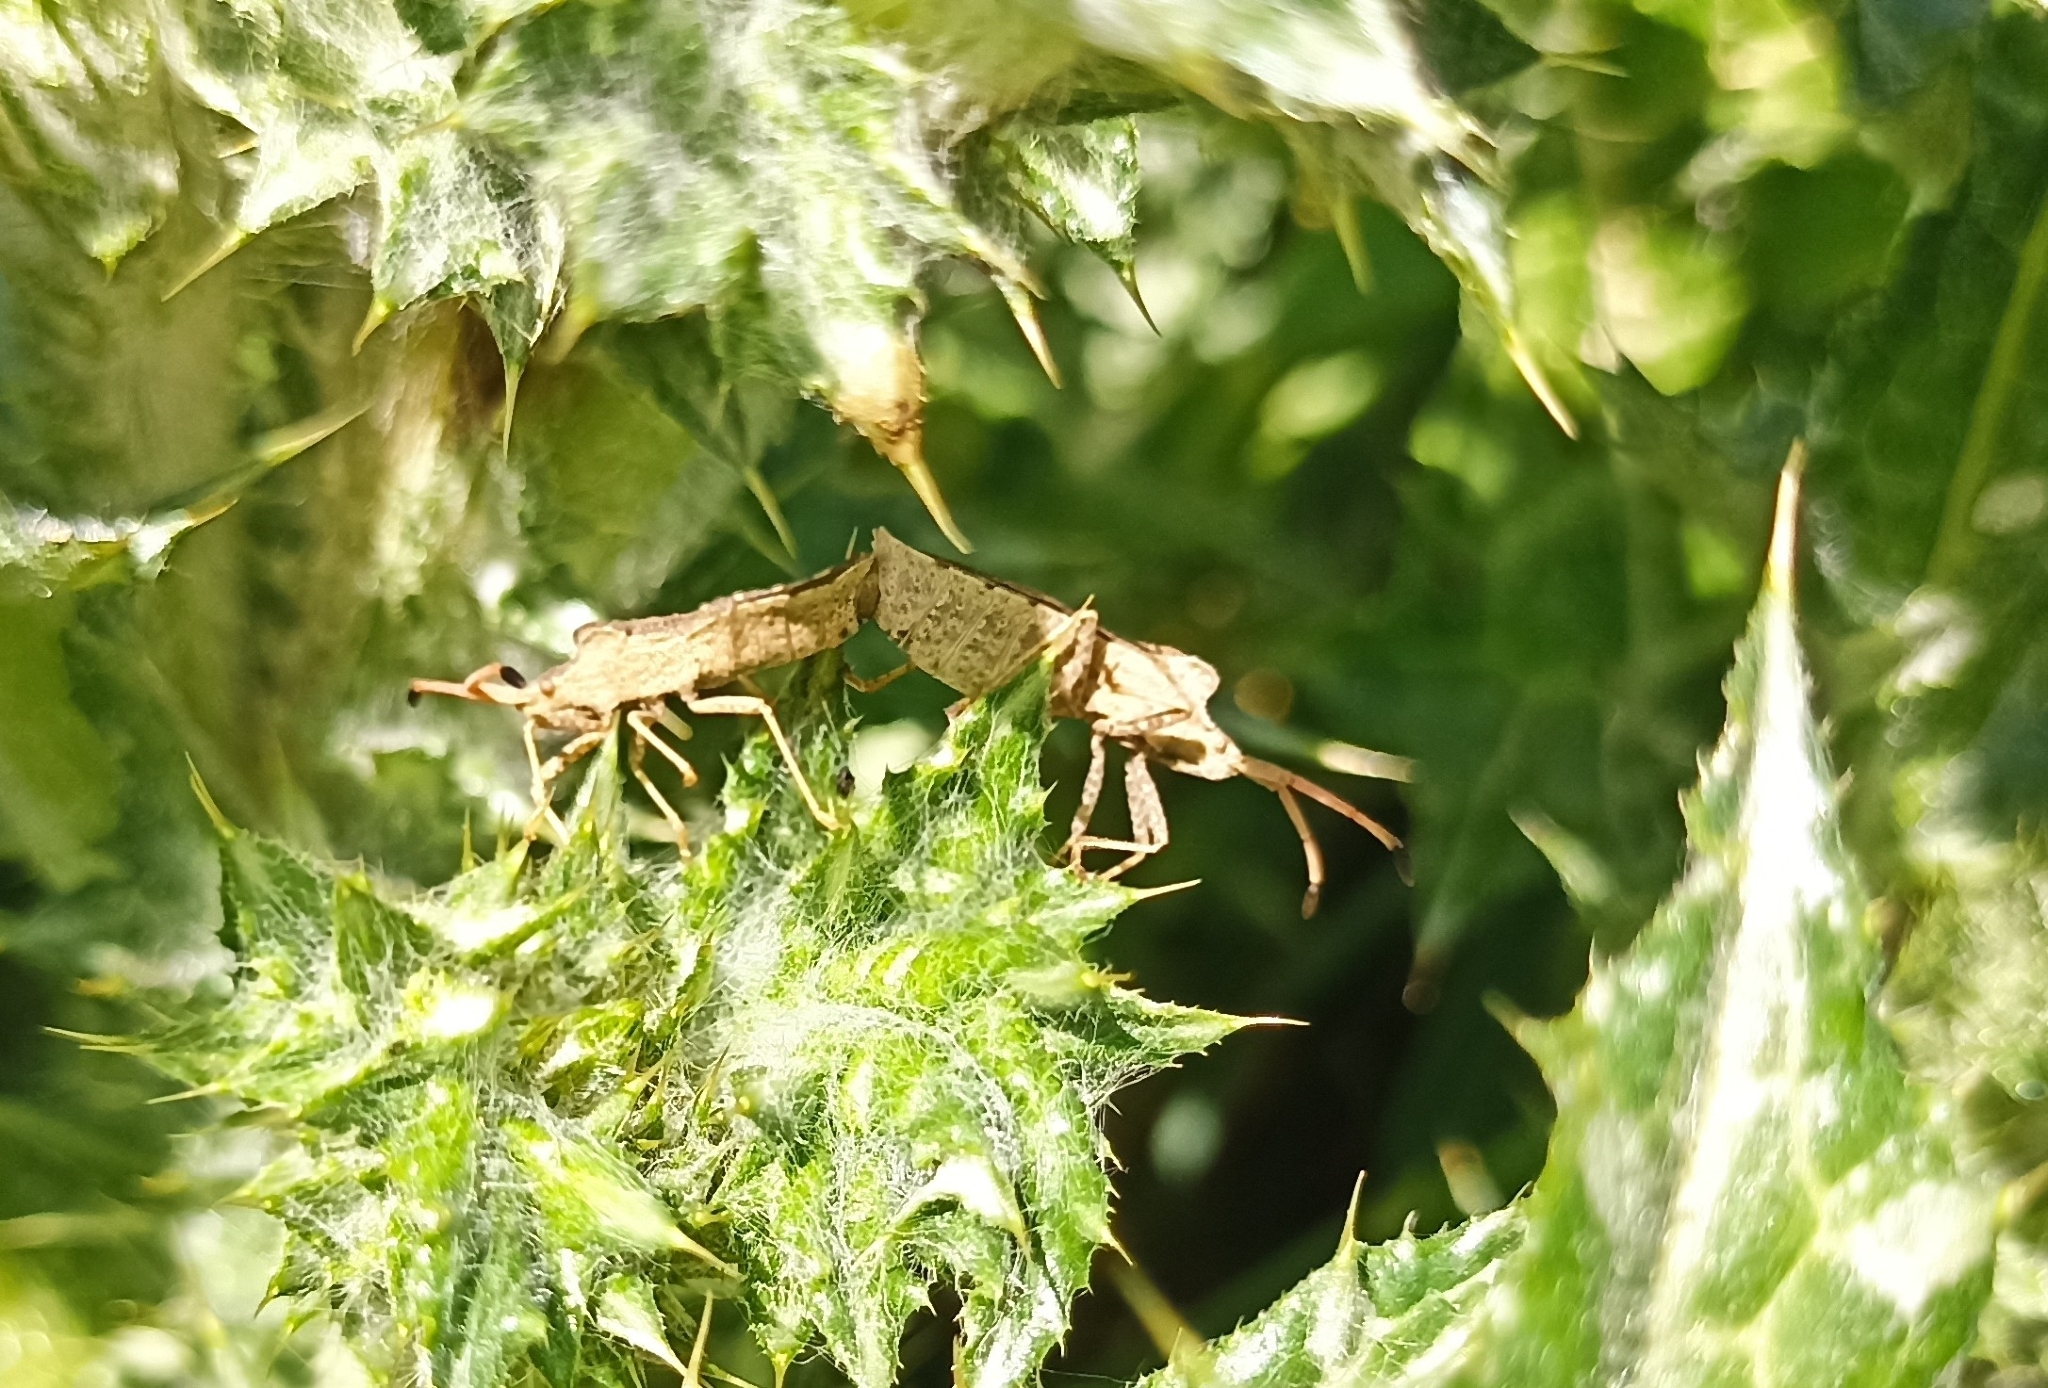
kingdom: Animalia
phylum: Arthropoda
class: Insecta
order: Hemiptera
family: Coreidae
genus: Enoplops
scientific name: Enoplops scapha
